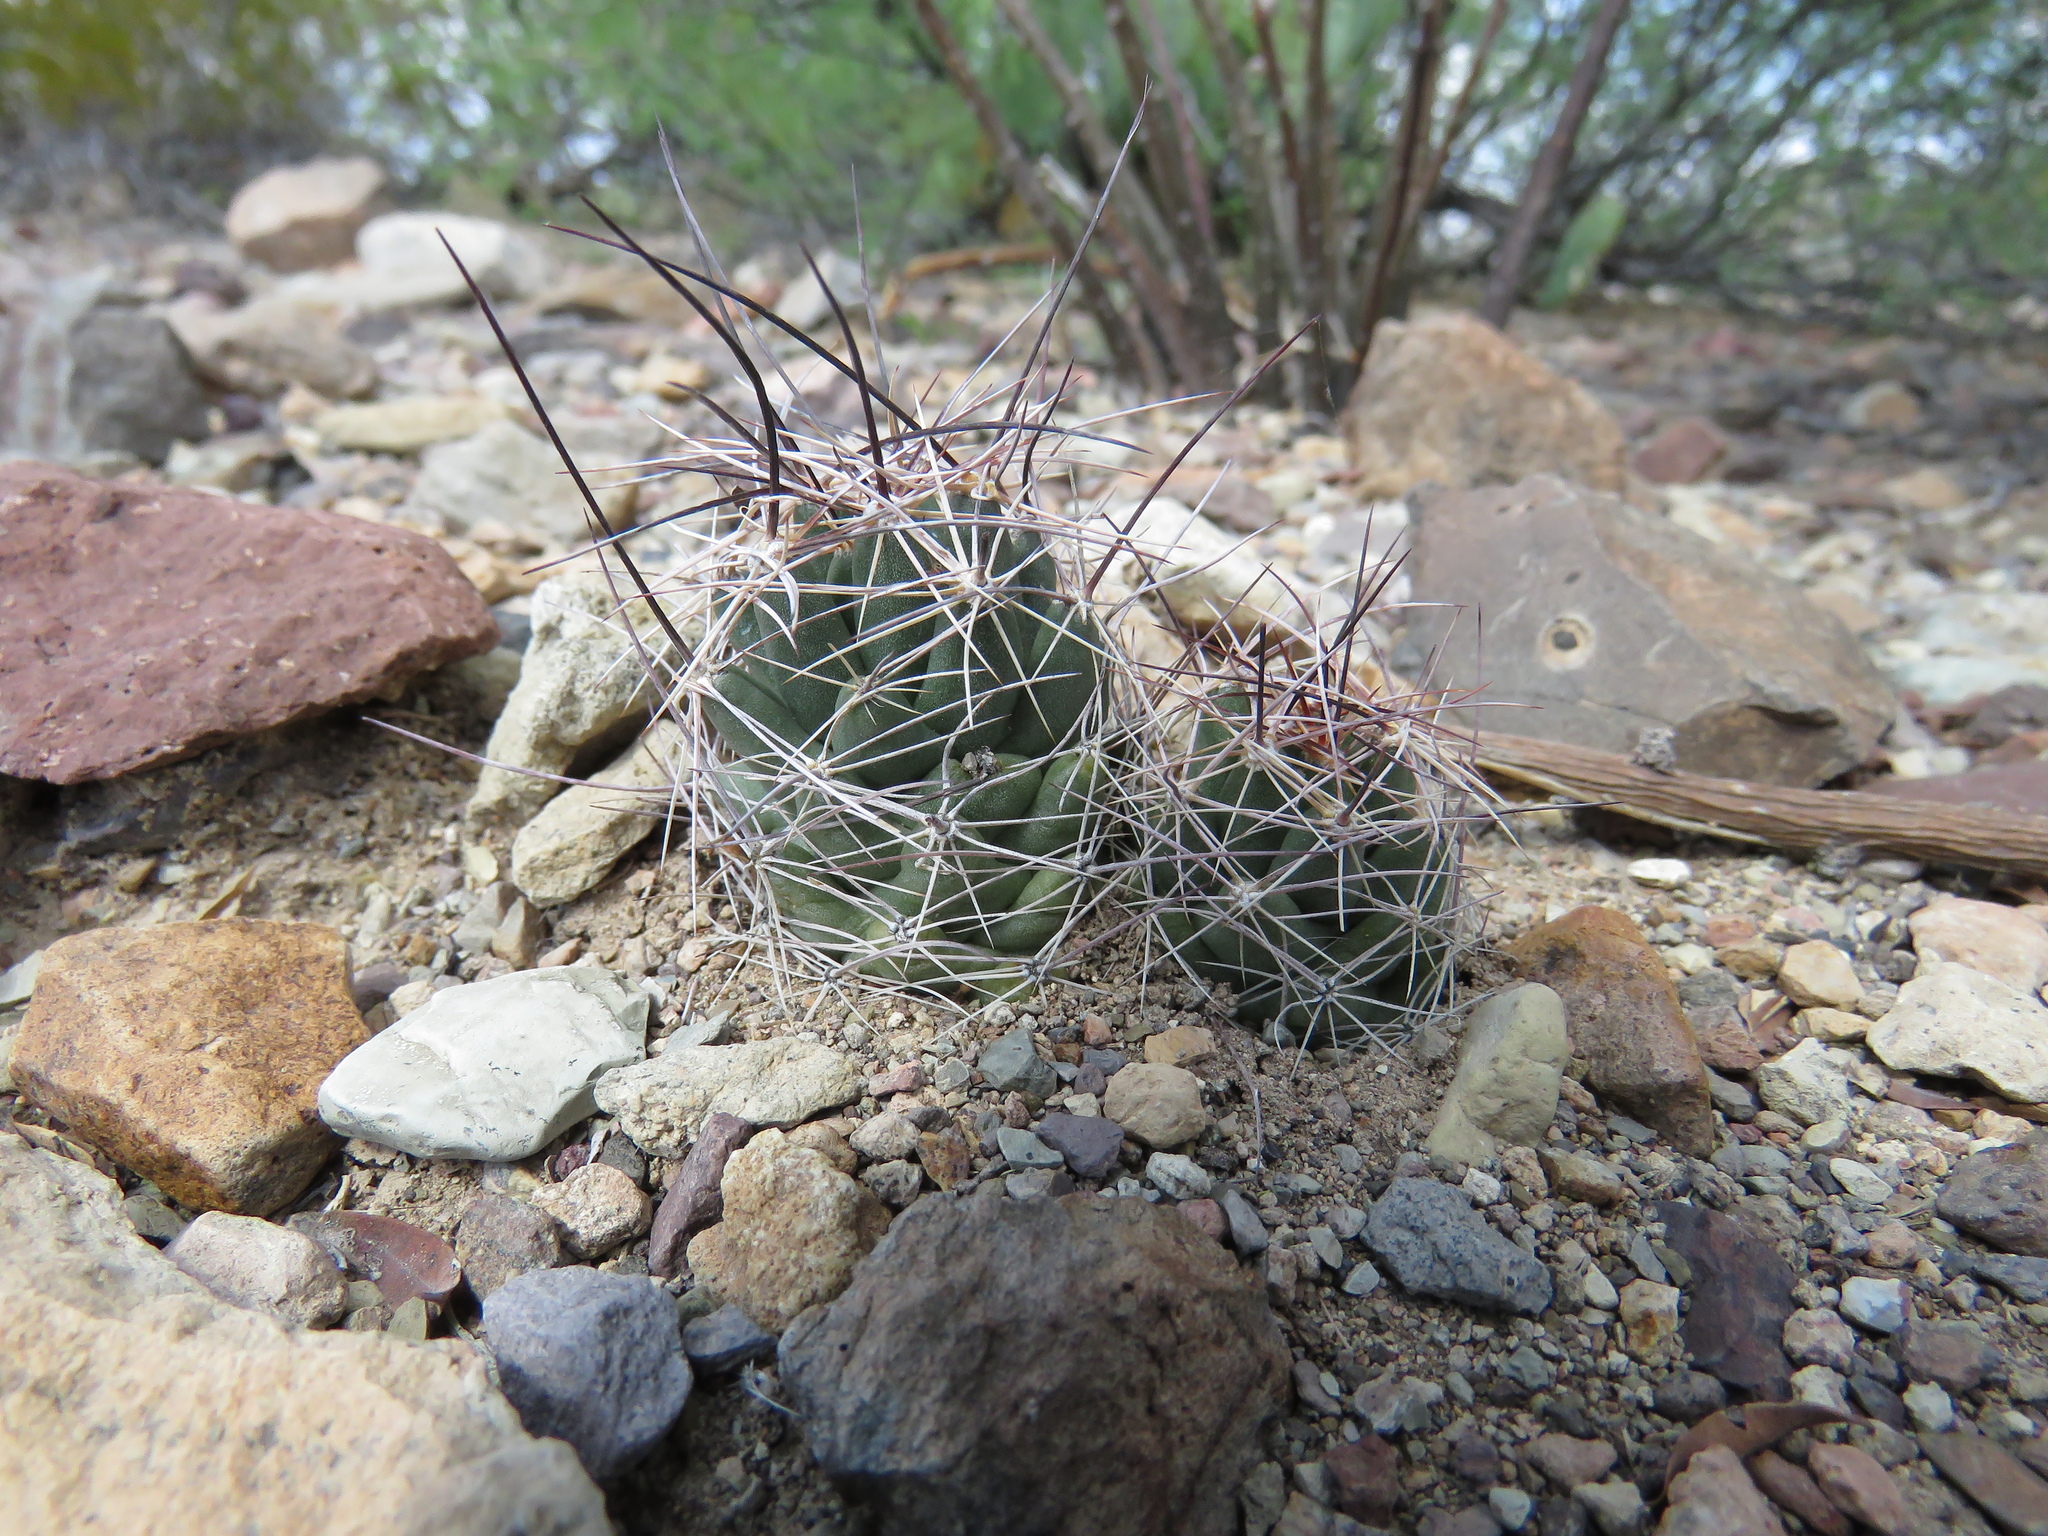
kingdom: Plantae
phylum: Tracheophyta
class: Magnoliopsida
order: Caryophyllales
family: Cactaceae
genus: Coryphantha
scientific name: Coryphantha macromeris
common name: Nipple beehive cactus
